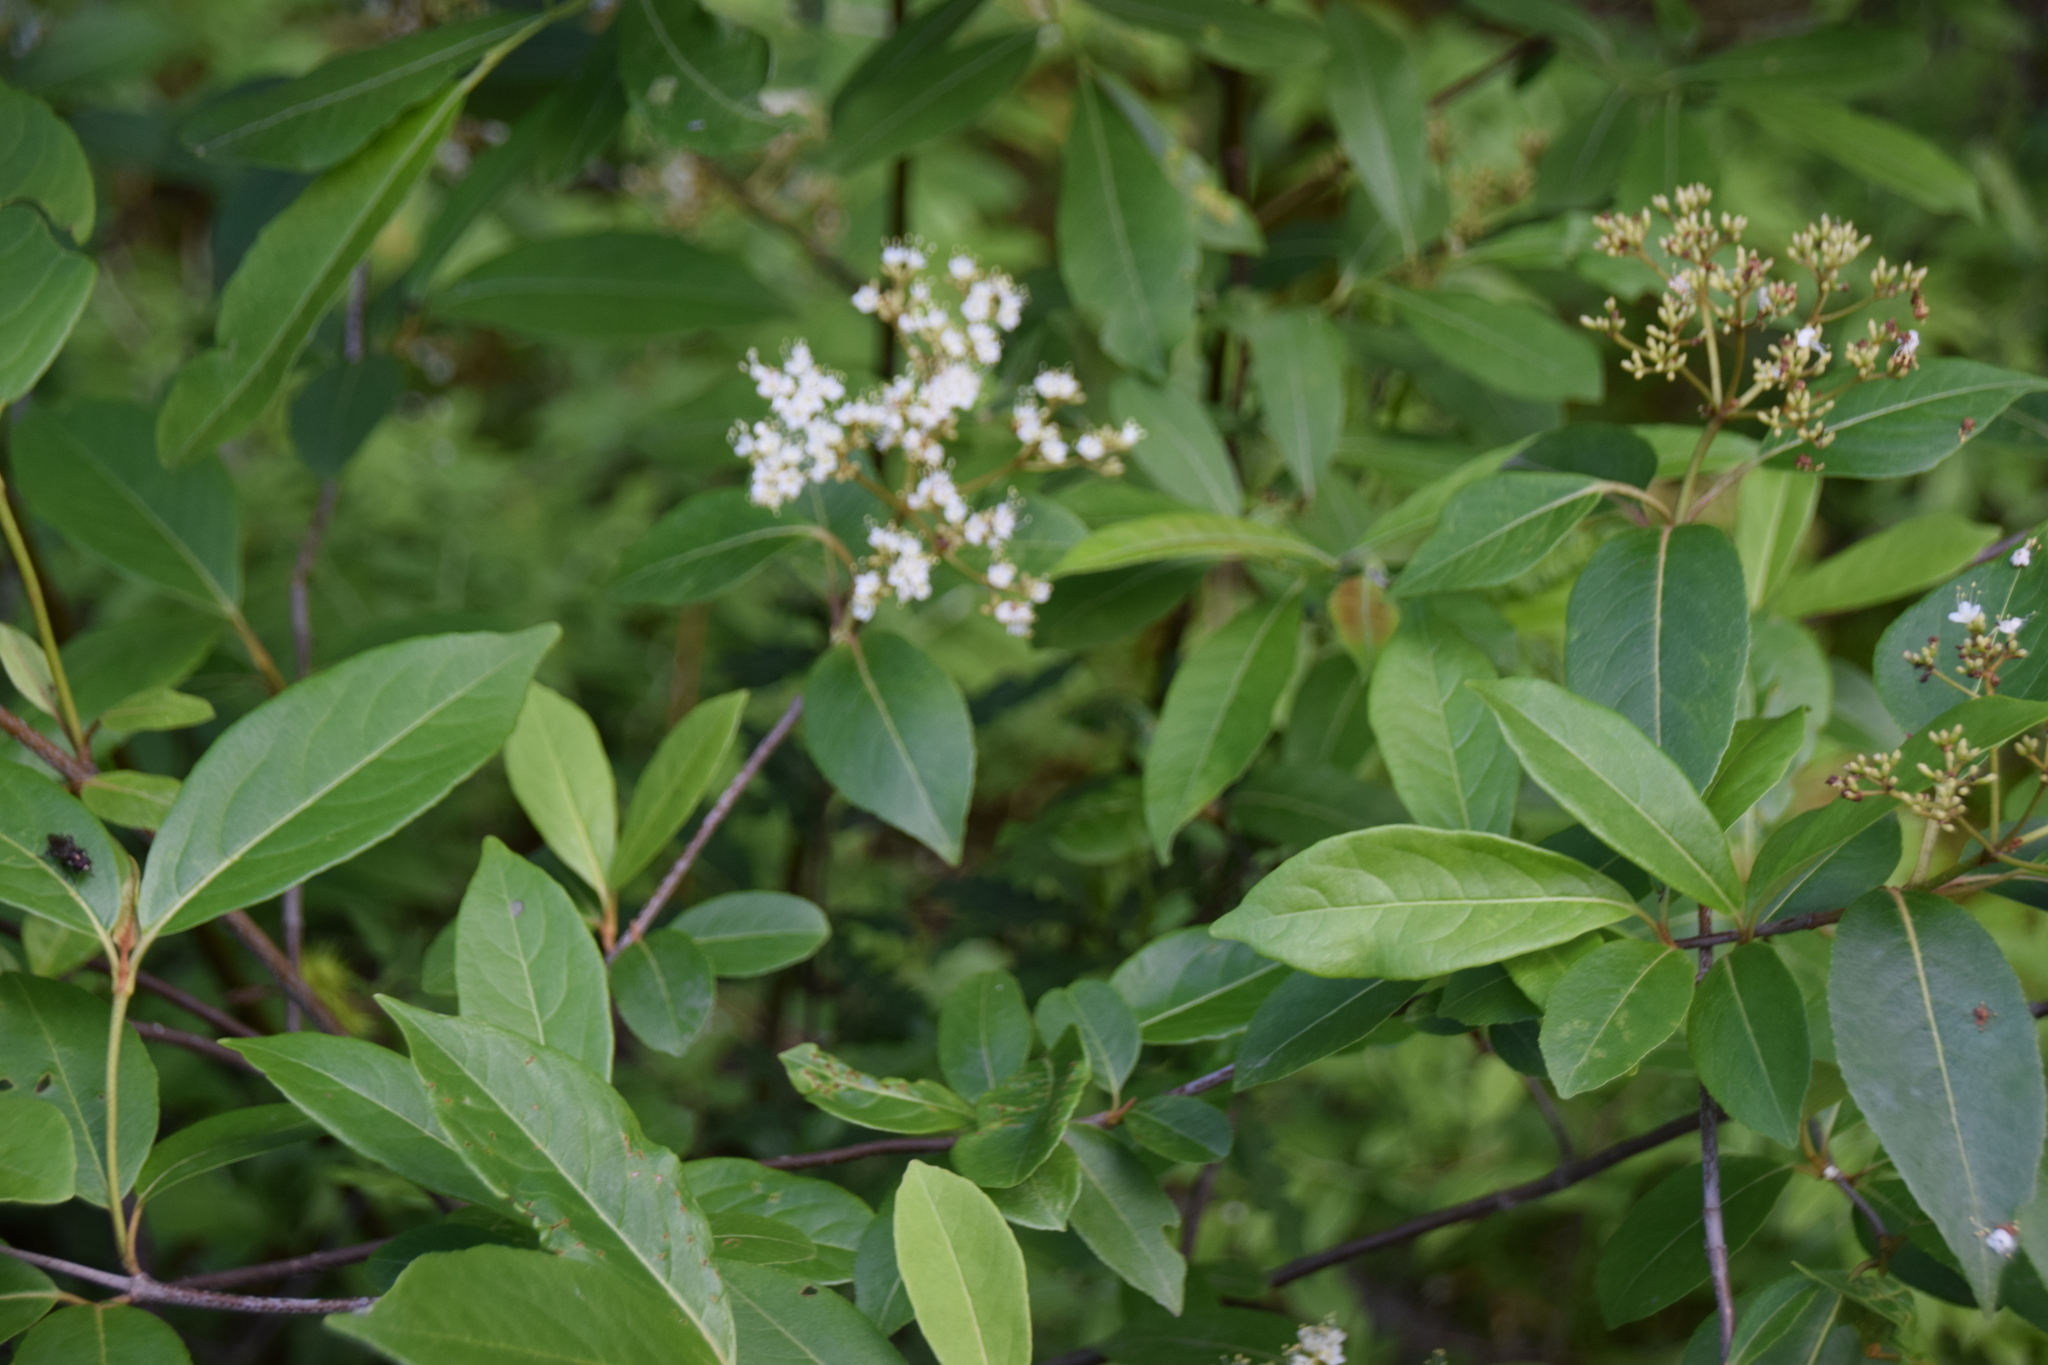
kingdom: Plantae
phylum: Tracheophyta
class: Magnoliopsida
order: Dipsacales
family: Viburnaceae
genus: Viburnum
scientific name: Viburnum cassinoides
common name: Swamp haw
